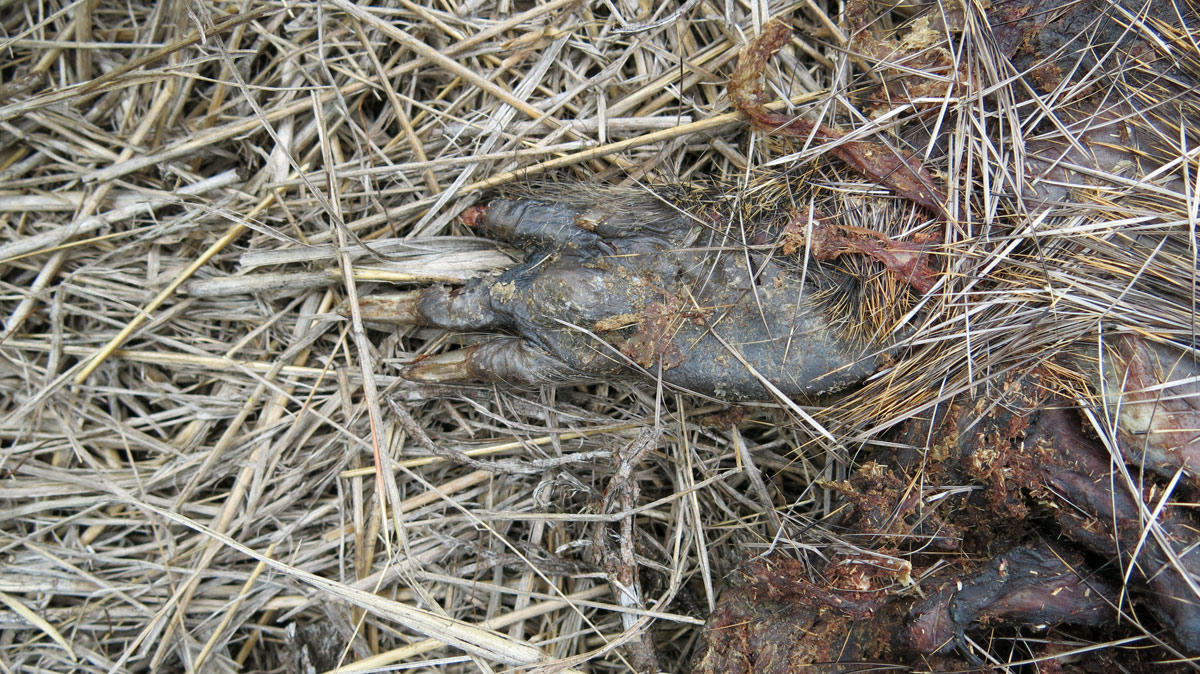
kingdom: Animalia
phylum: Chordata
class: Mammalia
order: Carnivora
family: Hyaenidae
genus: Proteles
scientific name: Proteles cristata
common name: Aardwolf
